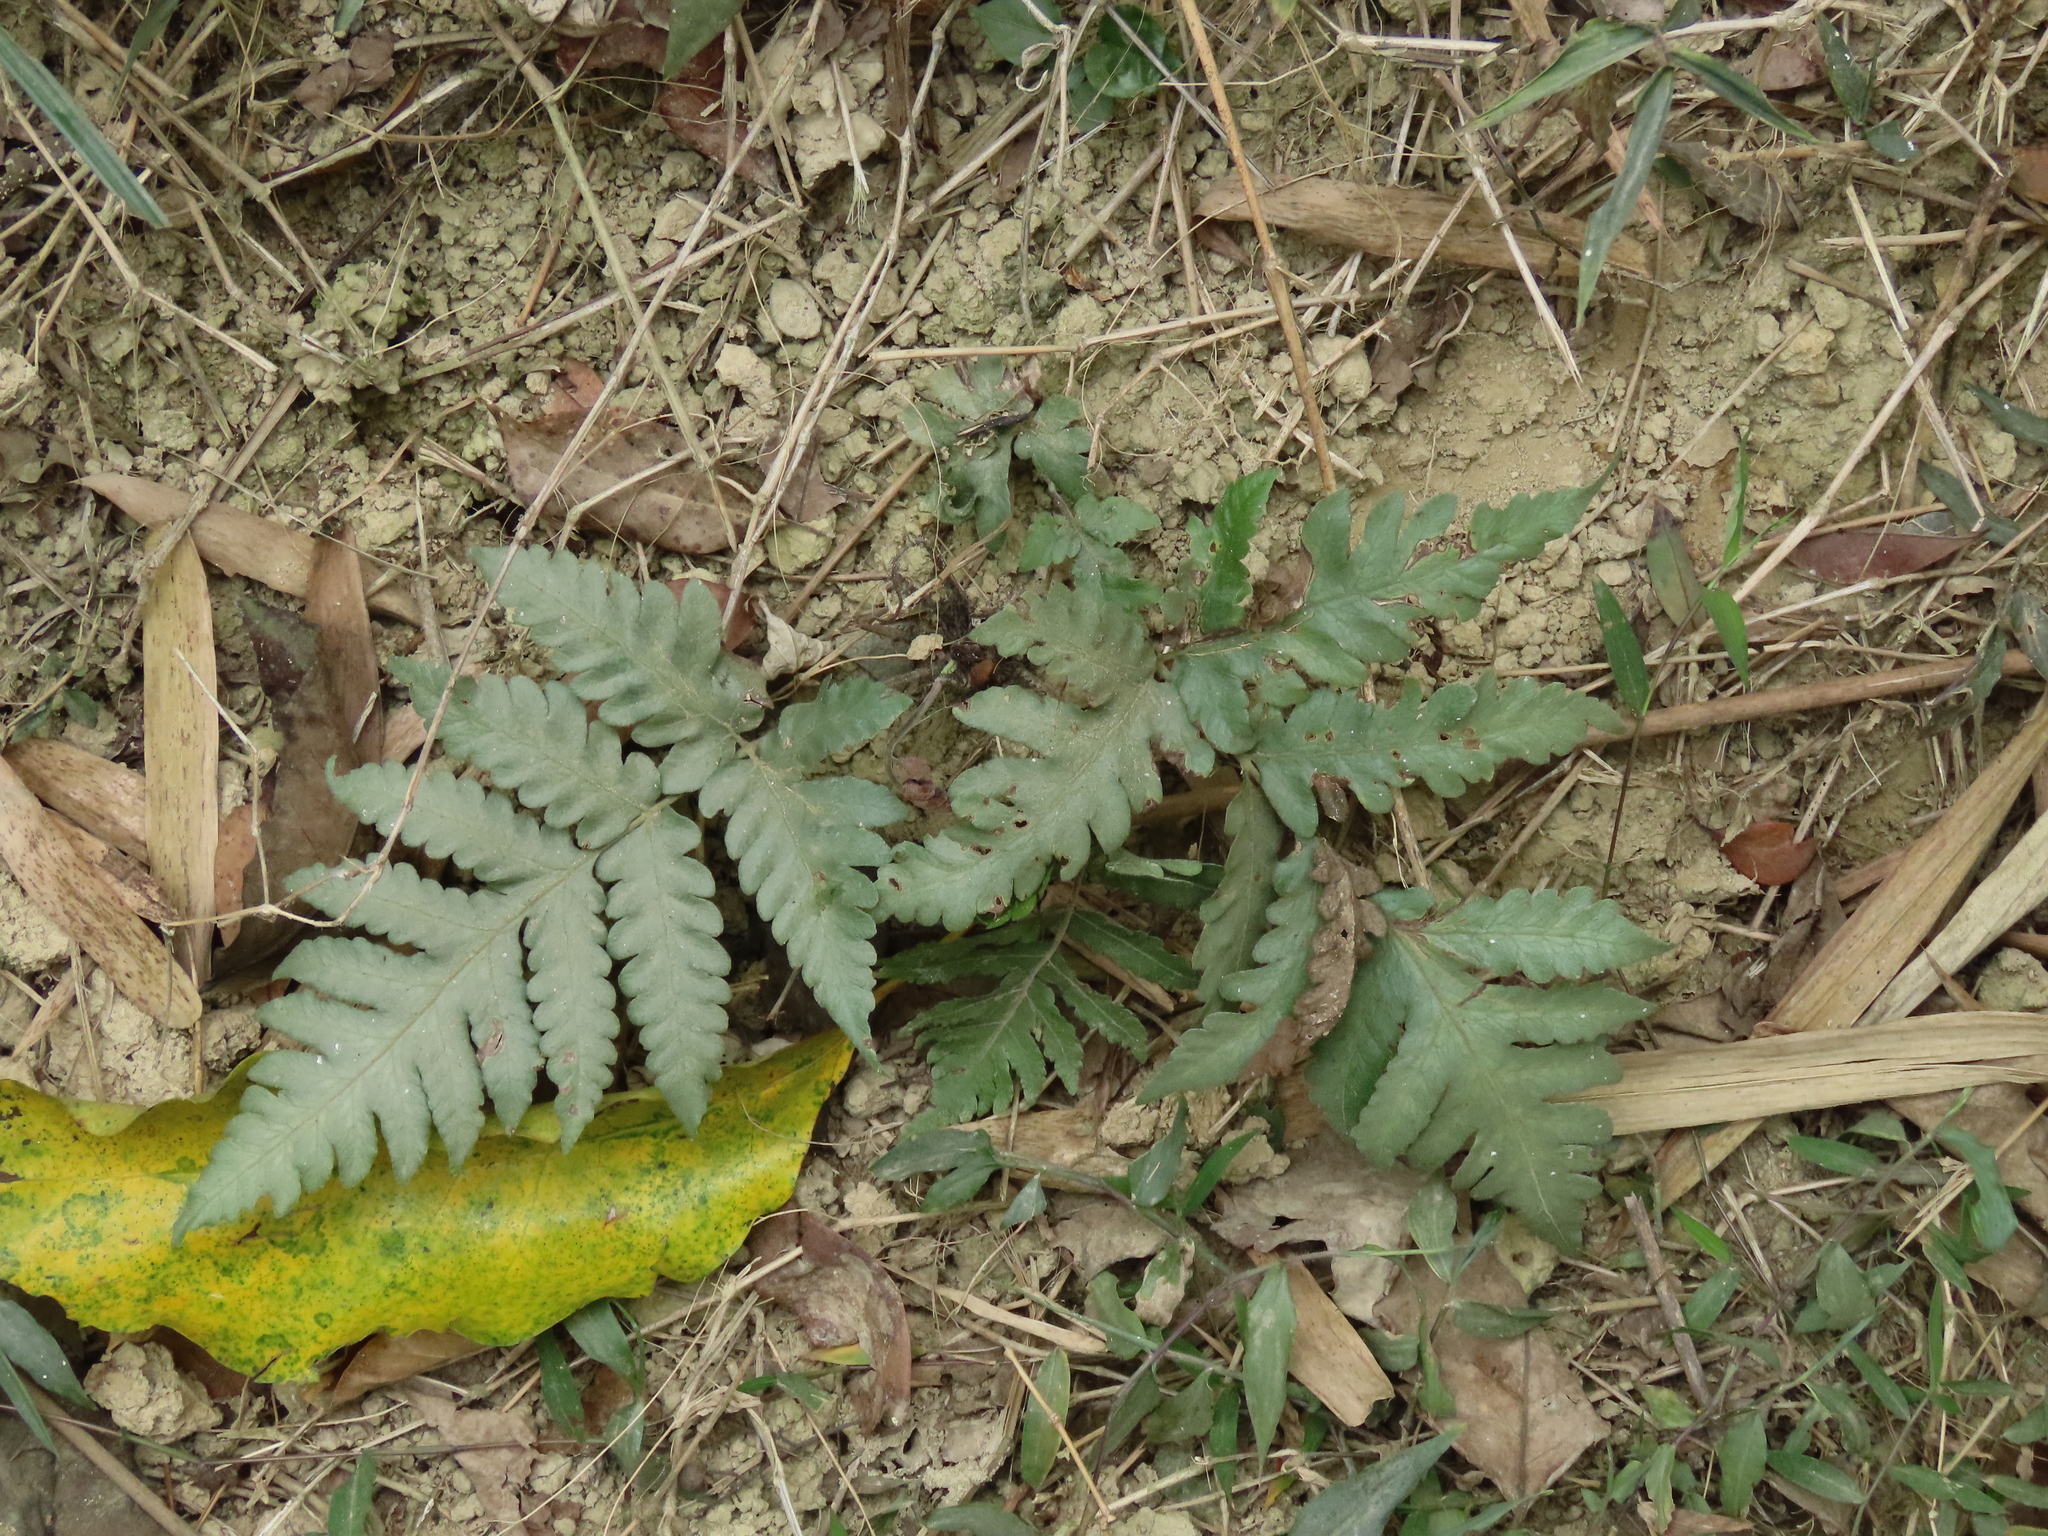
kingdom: Plantae
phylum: Tracheophyta
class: Polypodiopsida
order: Polypodiales
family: Tectariaceae
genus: Tectaria
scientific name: Tectaria fuscipes
